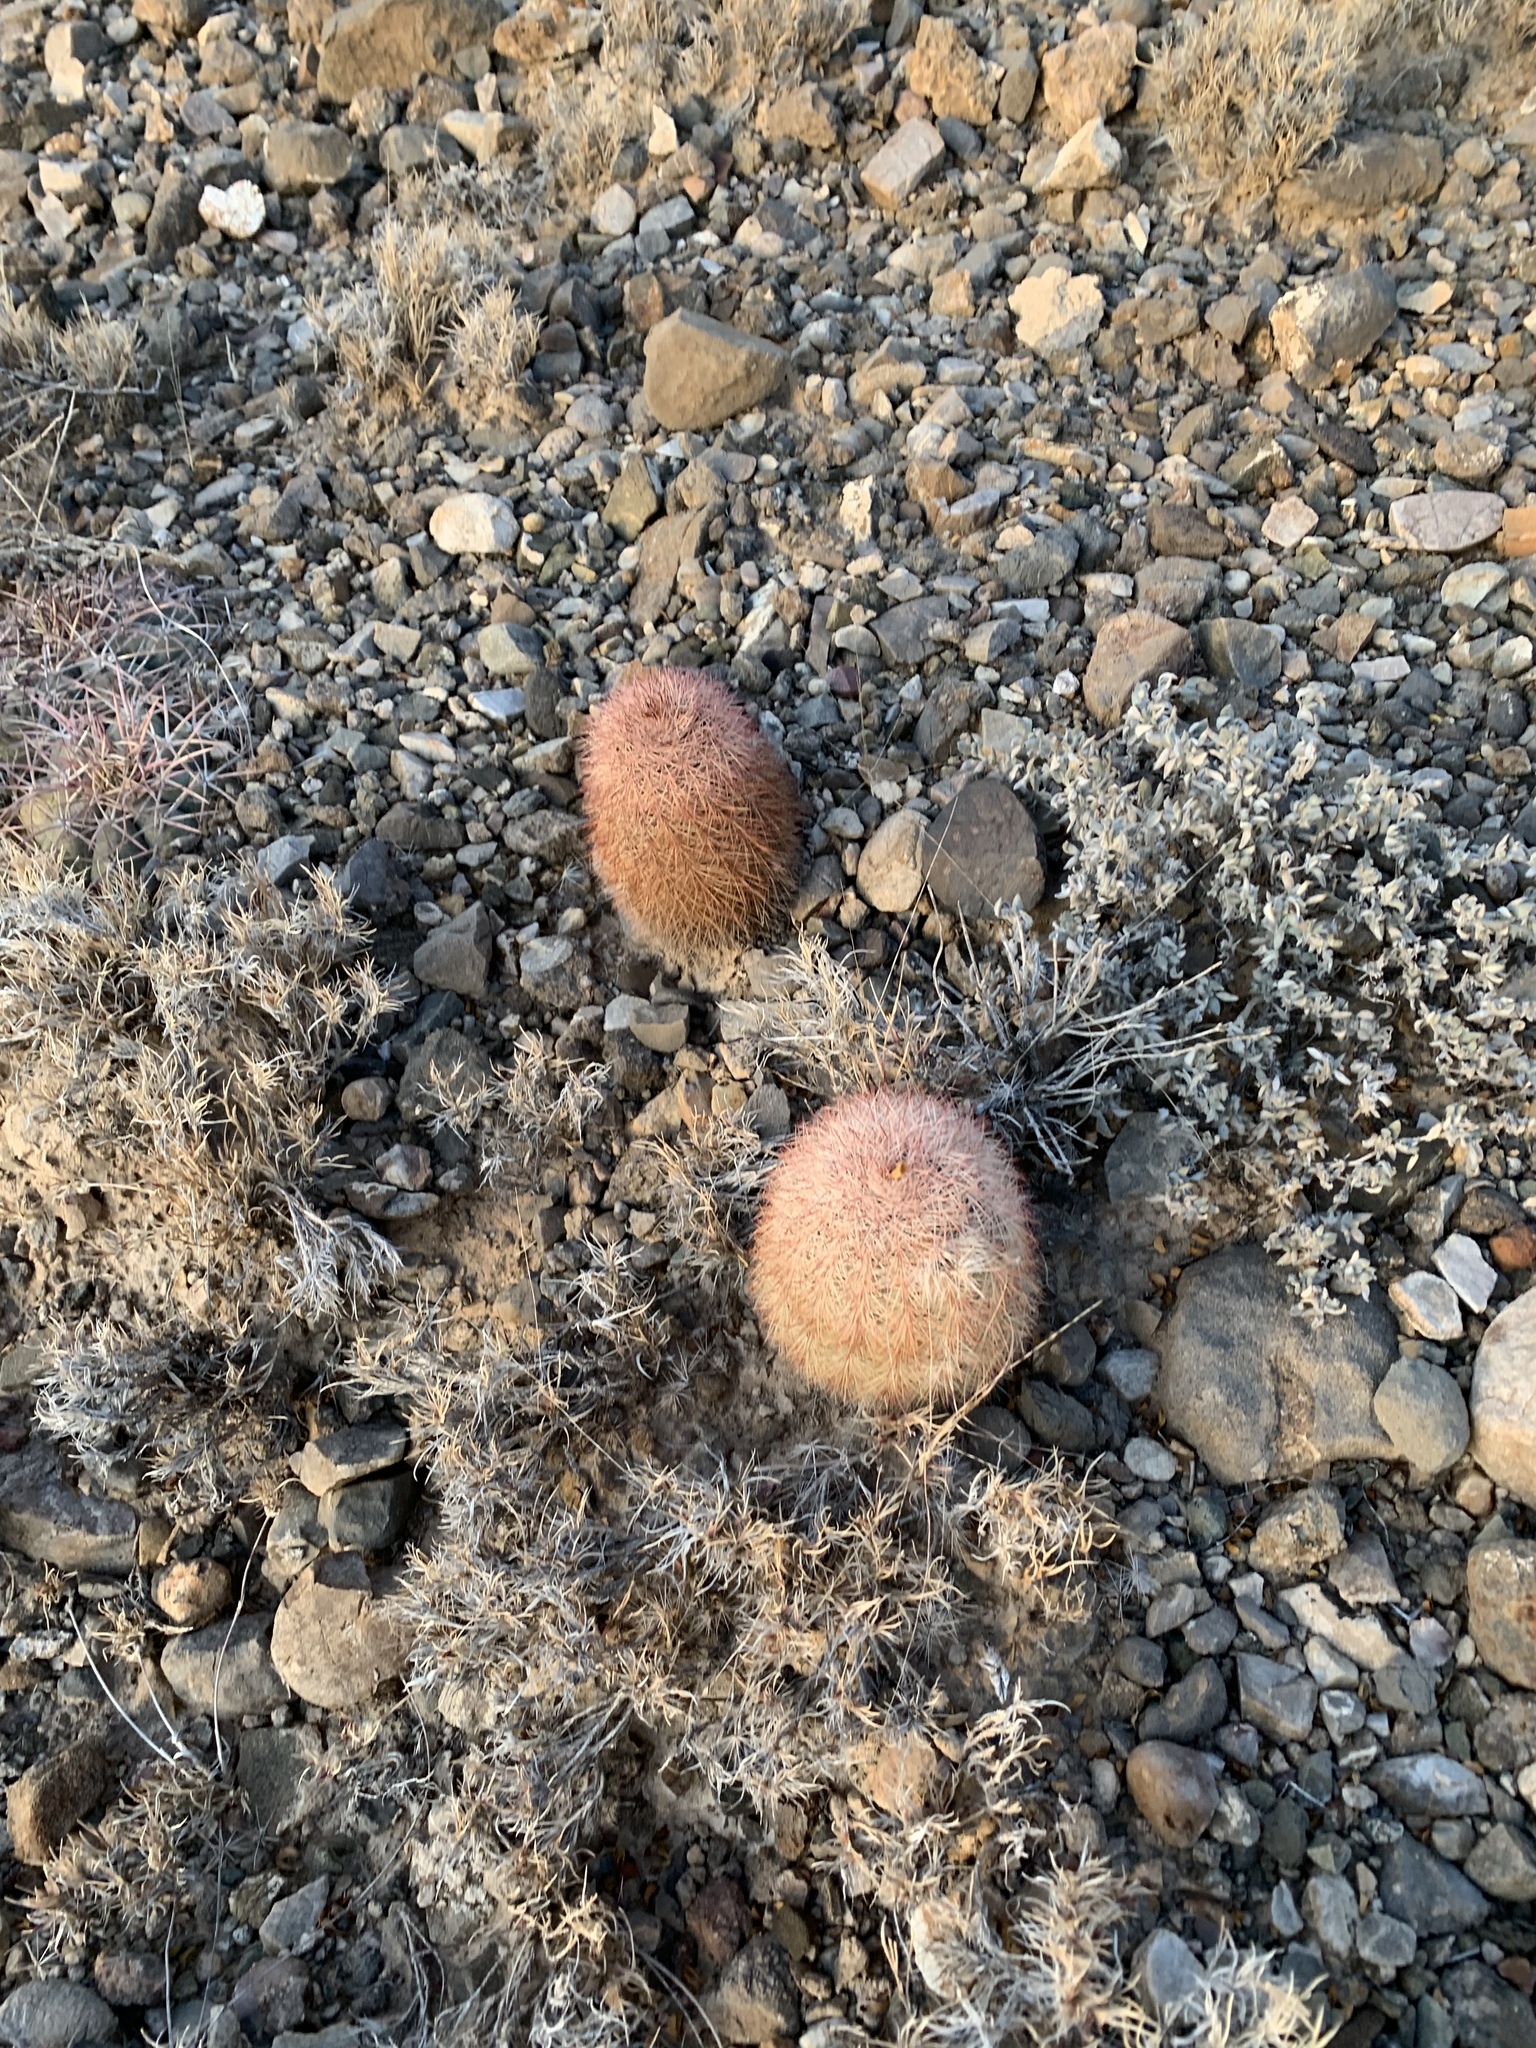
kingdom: Plantae
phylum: Tracheophyta
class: Magnoliopsida
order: Caryophyllales
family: Cactaceae
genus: Echinocereus
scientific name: Echinocereus dasyacanthus
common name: Spiny hedgehog cactus
